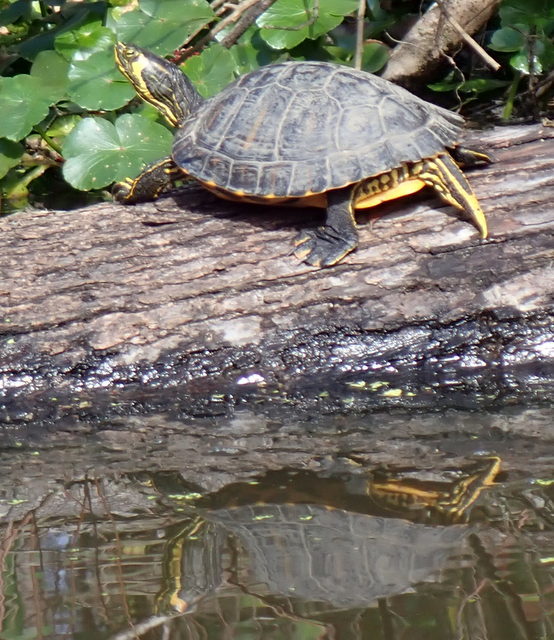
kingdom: Animalia
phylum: Chordata
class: Testudines
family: Emydidae
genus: Trachemys
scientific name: Trachemys scripta
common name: Slider
